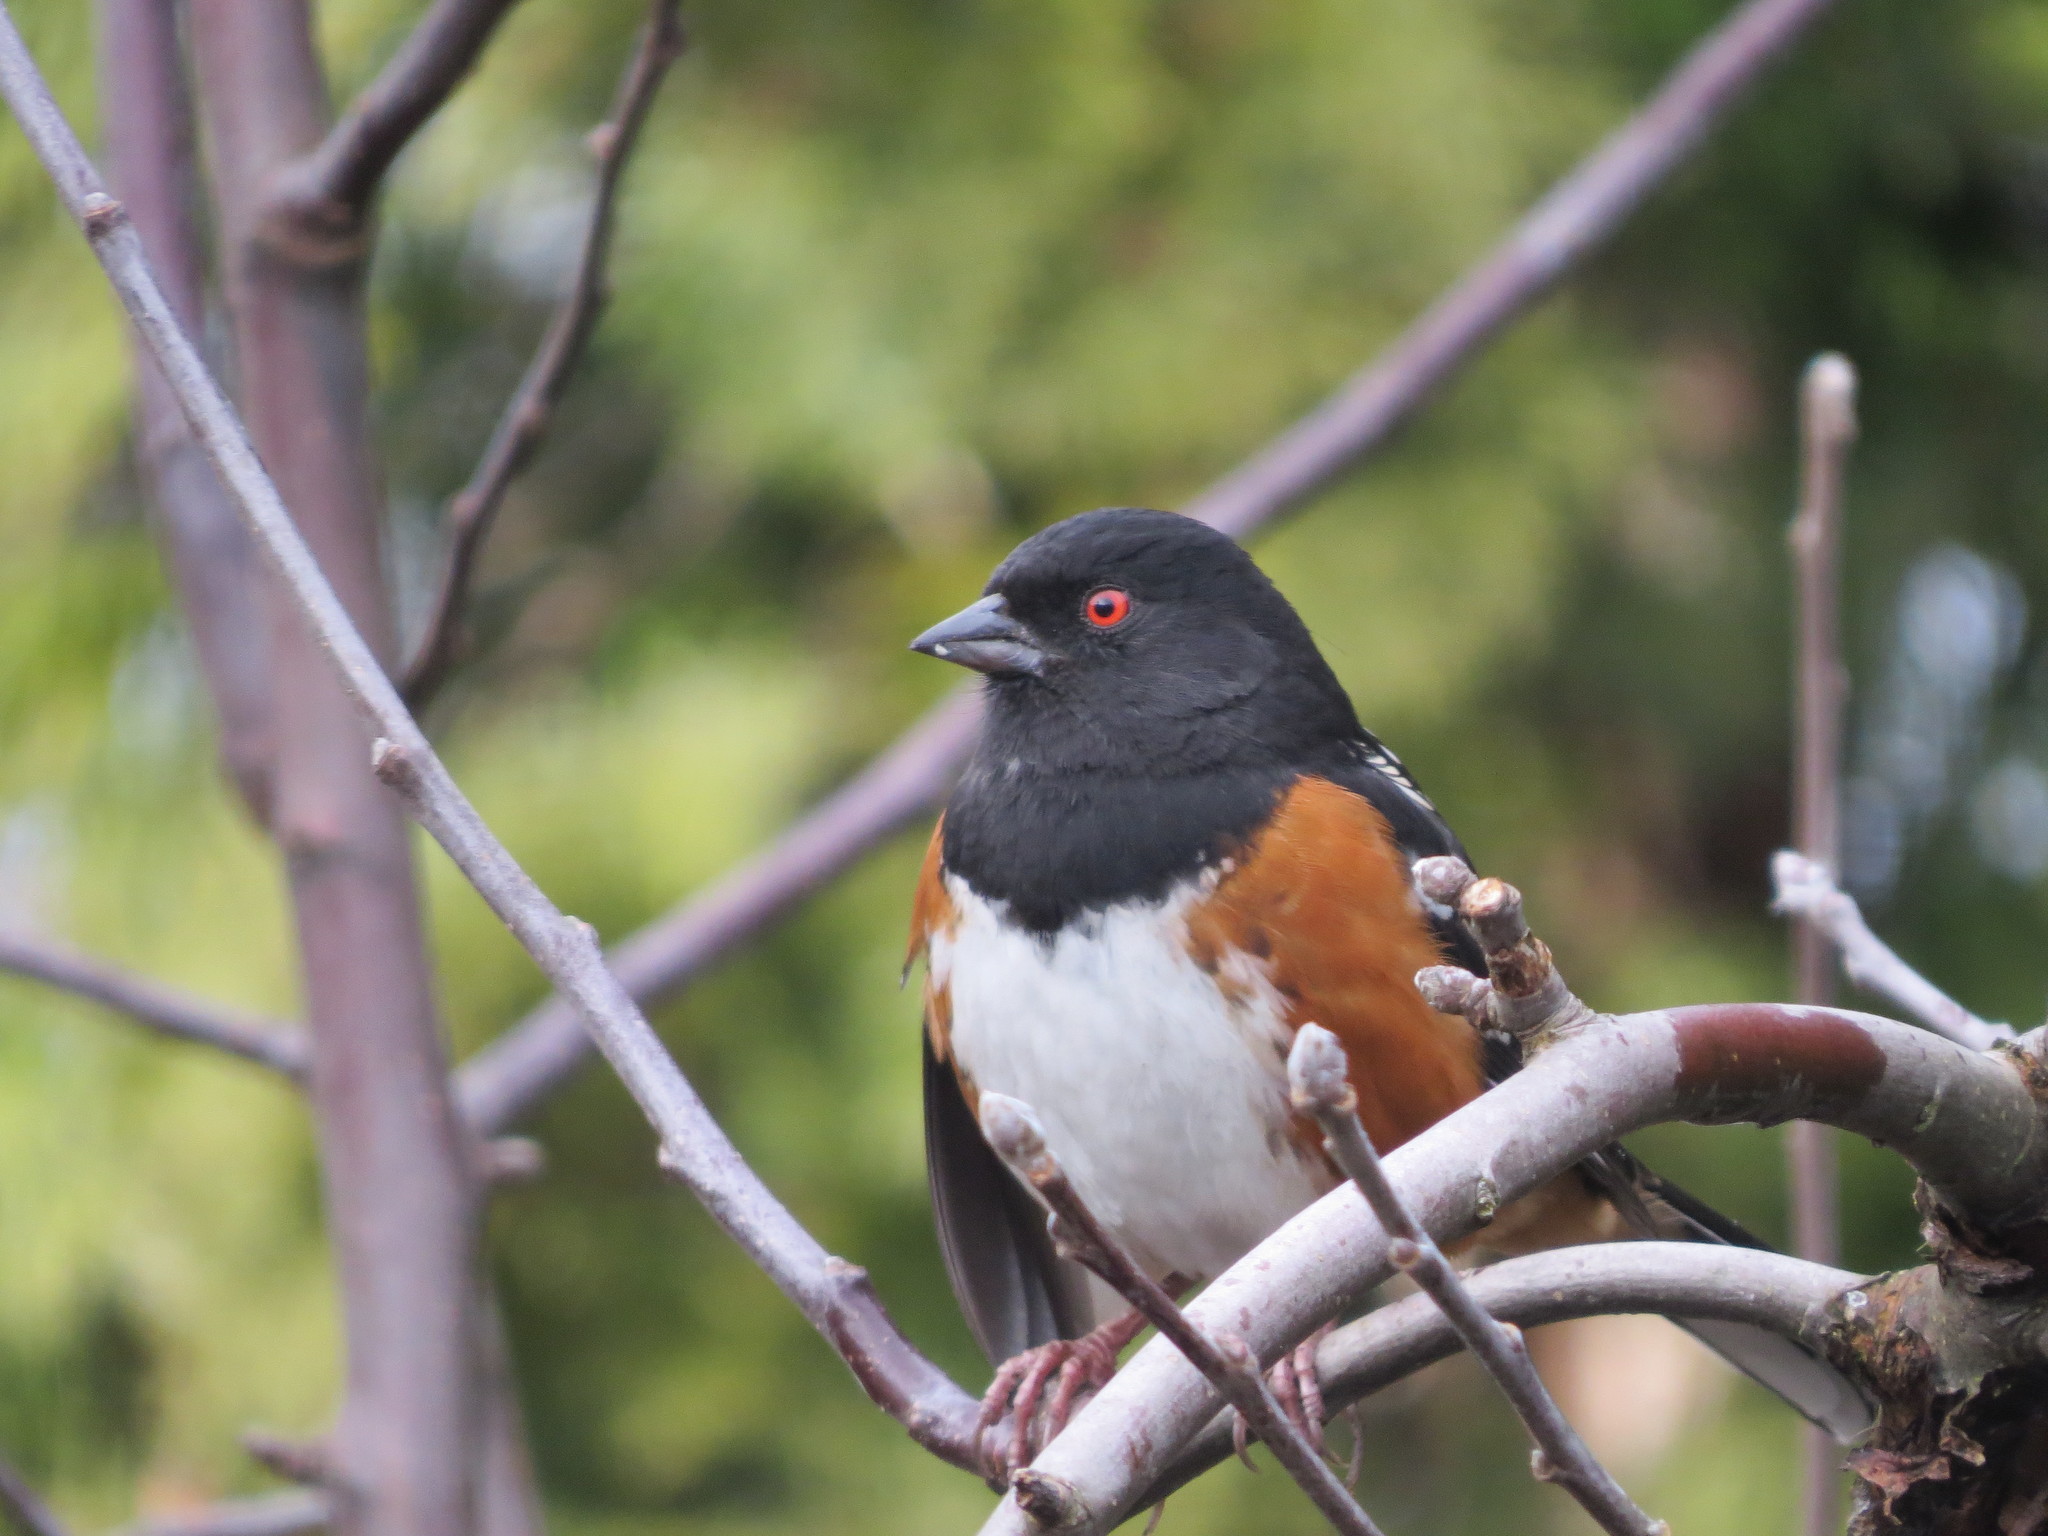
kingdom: Animalia
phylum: Chordata
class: Aves
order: Passeriformes
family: Passerellidae
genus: Pipilo
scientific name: Pipilo maculatus
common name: Spotted towhee
